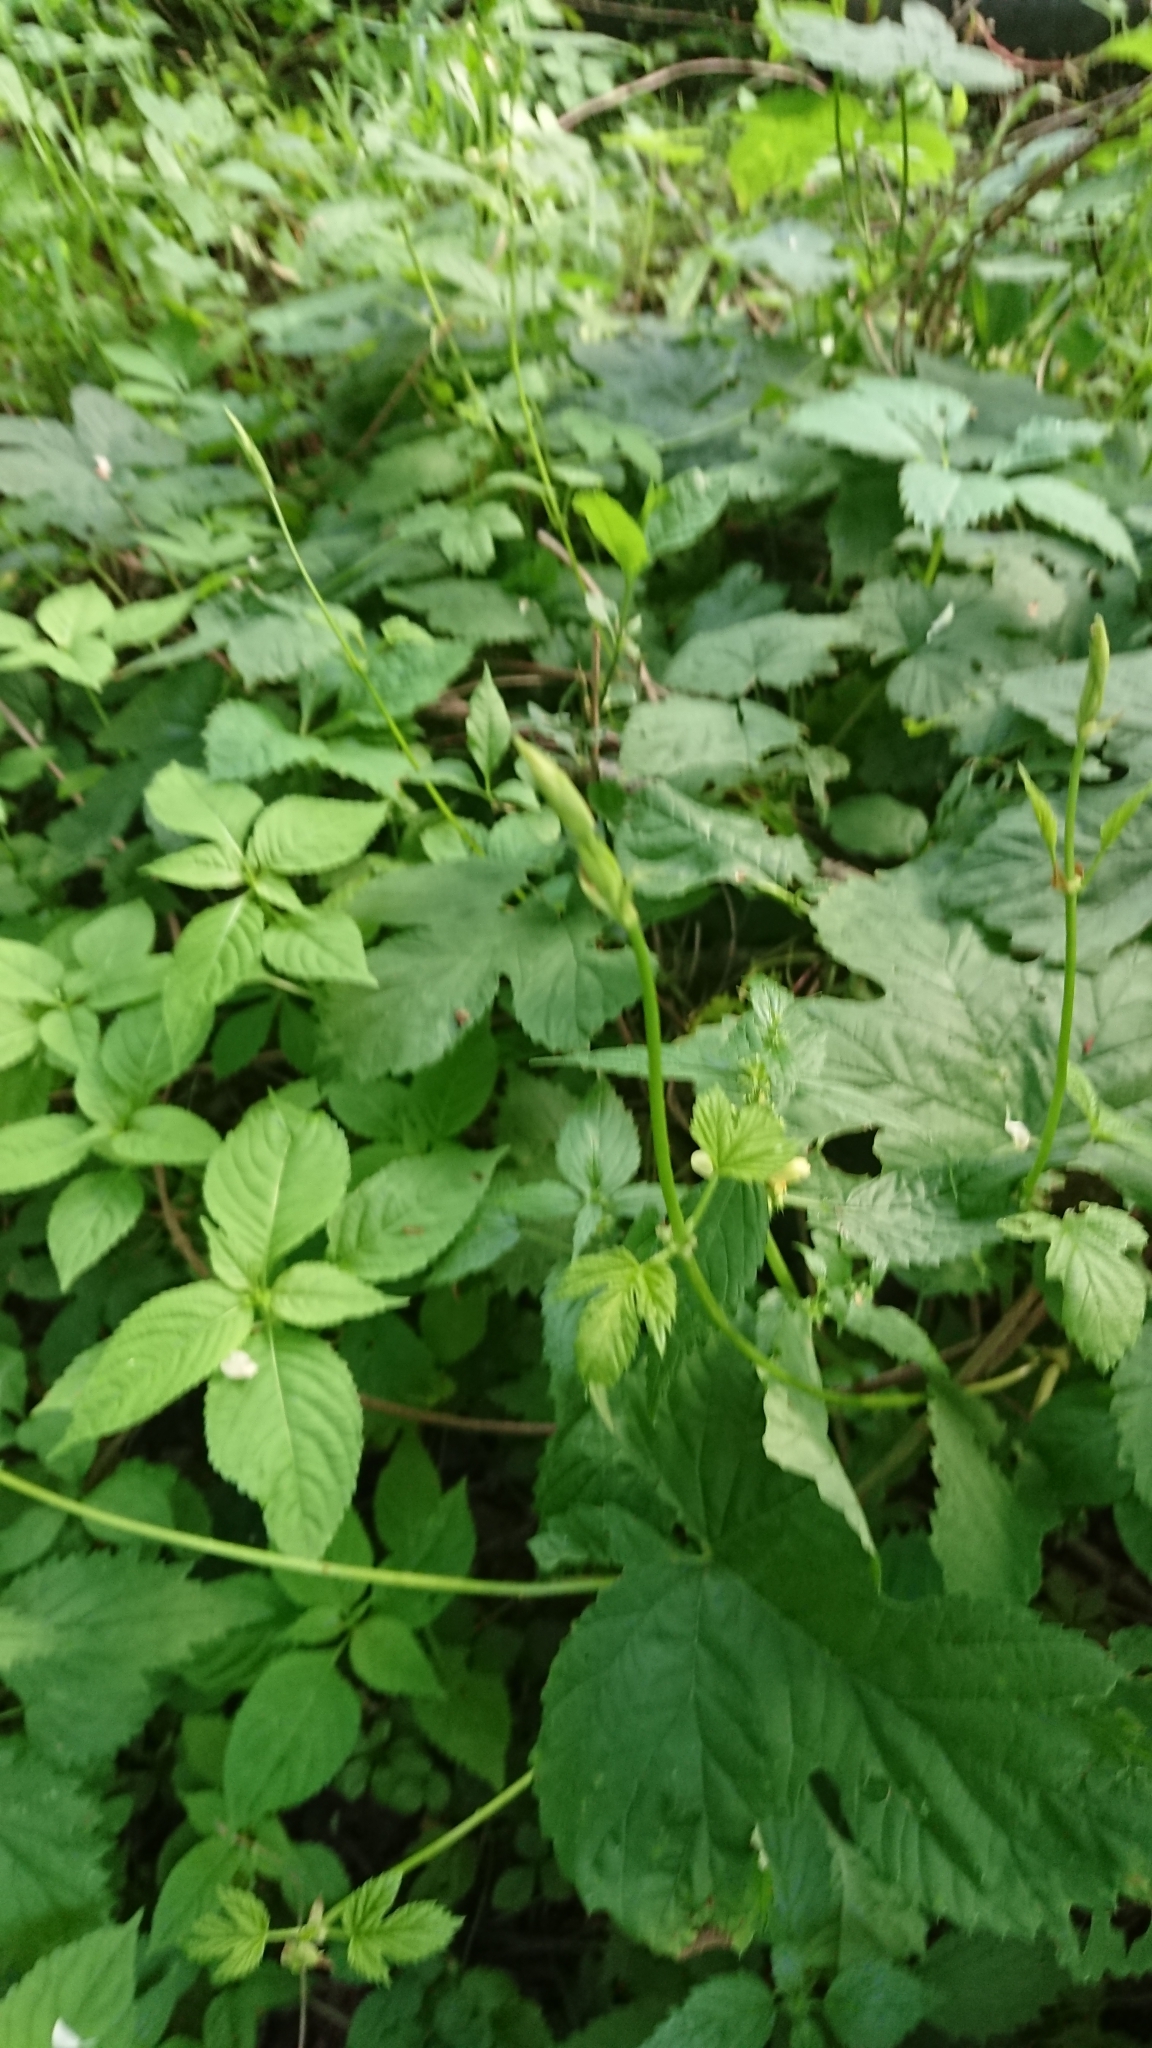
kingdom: Plantae
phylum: Tracheophyta
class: Magnoliopsida
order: Rosales
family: Cannabaceae
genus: Humulus
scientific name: Humulus lupulus
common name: Hop
